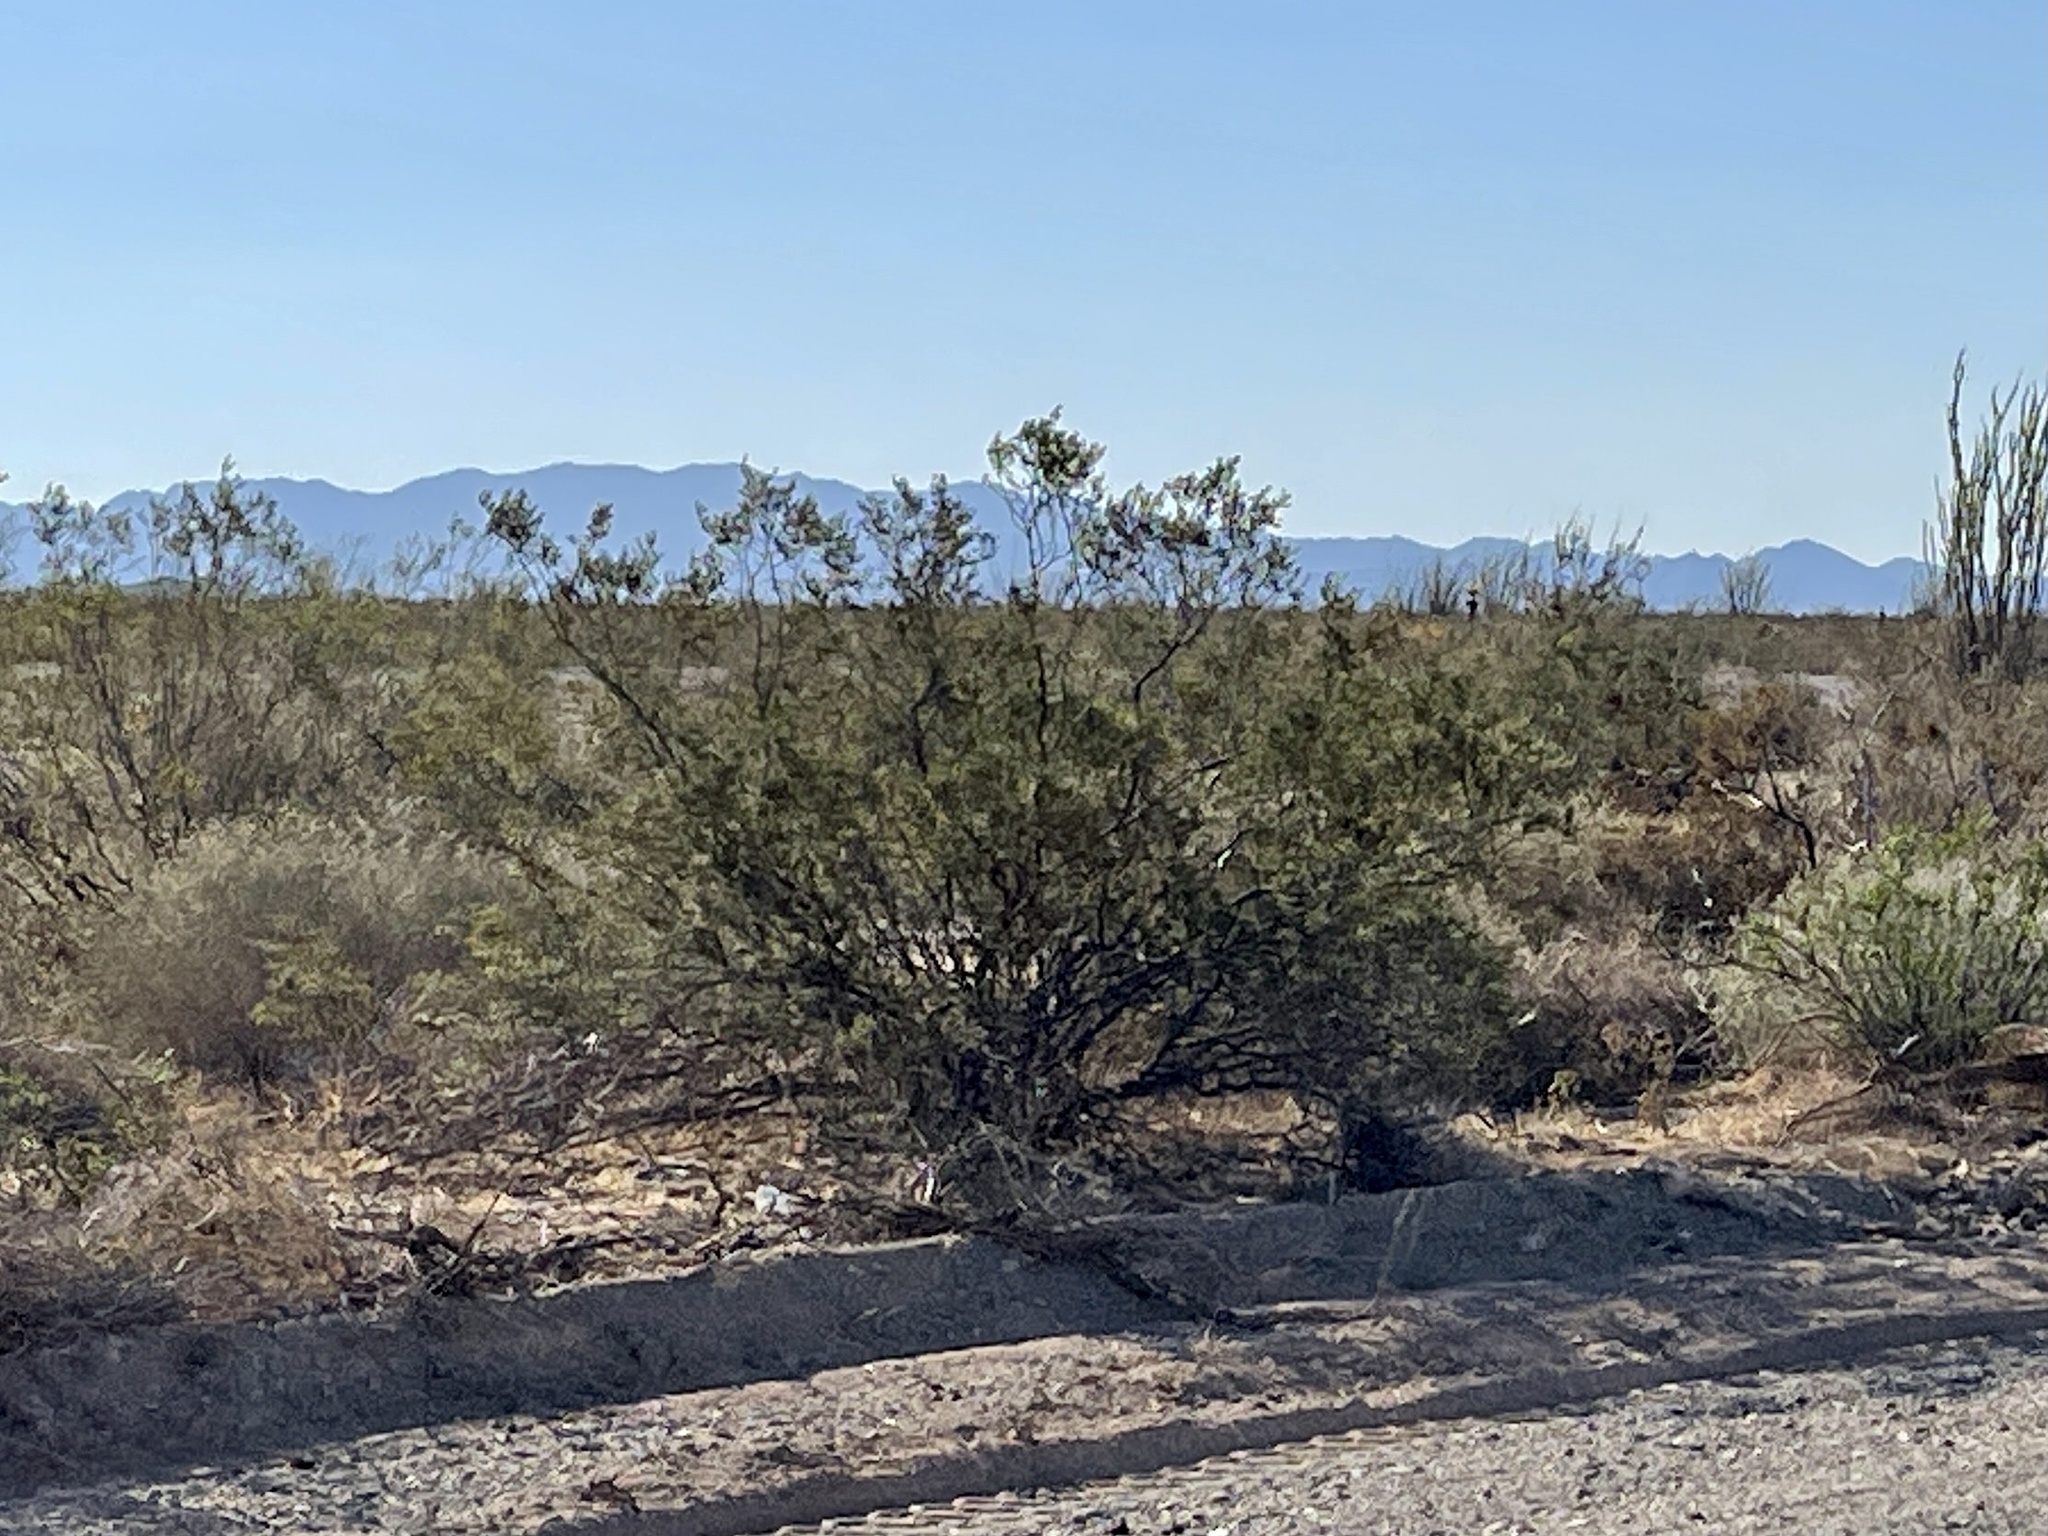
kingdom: Plantae
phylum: Tracheophyta
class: Magnoliopsida
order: Zygophyllales
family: Zygophyllaceae
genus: Larrea
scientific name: Larrea tridentata
